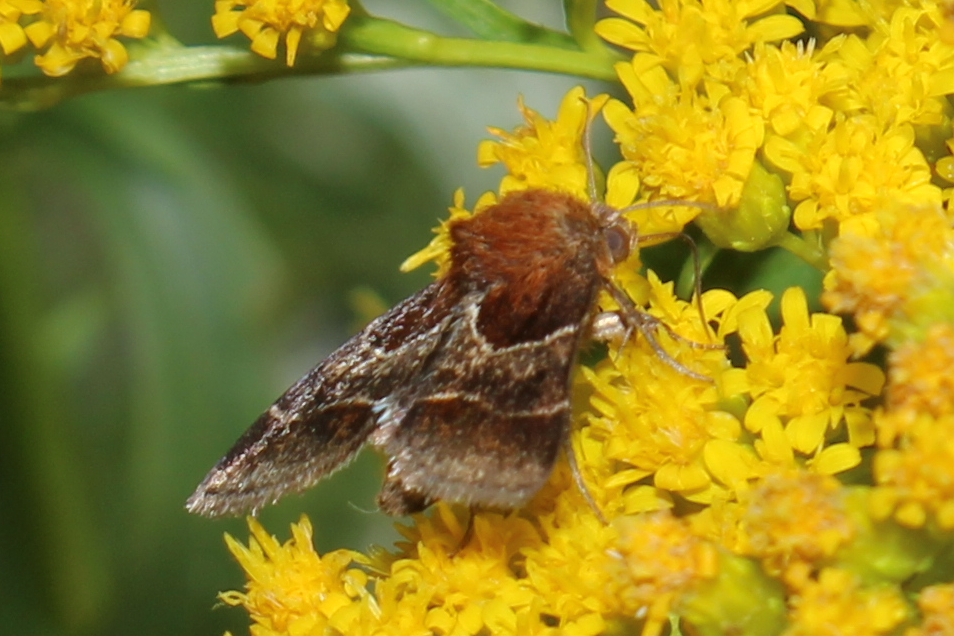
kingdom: Animalia
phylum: Arthropoda
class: Insecta
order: Lepidoptera
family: Noctuidae
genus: Schinia
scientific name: Schinia arcigera
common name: Arcigera flower moth
